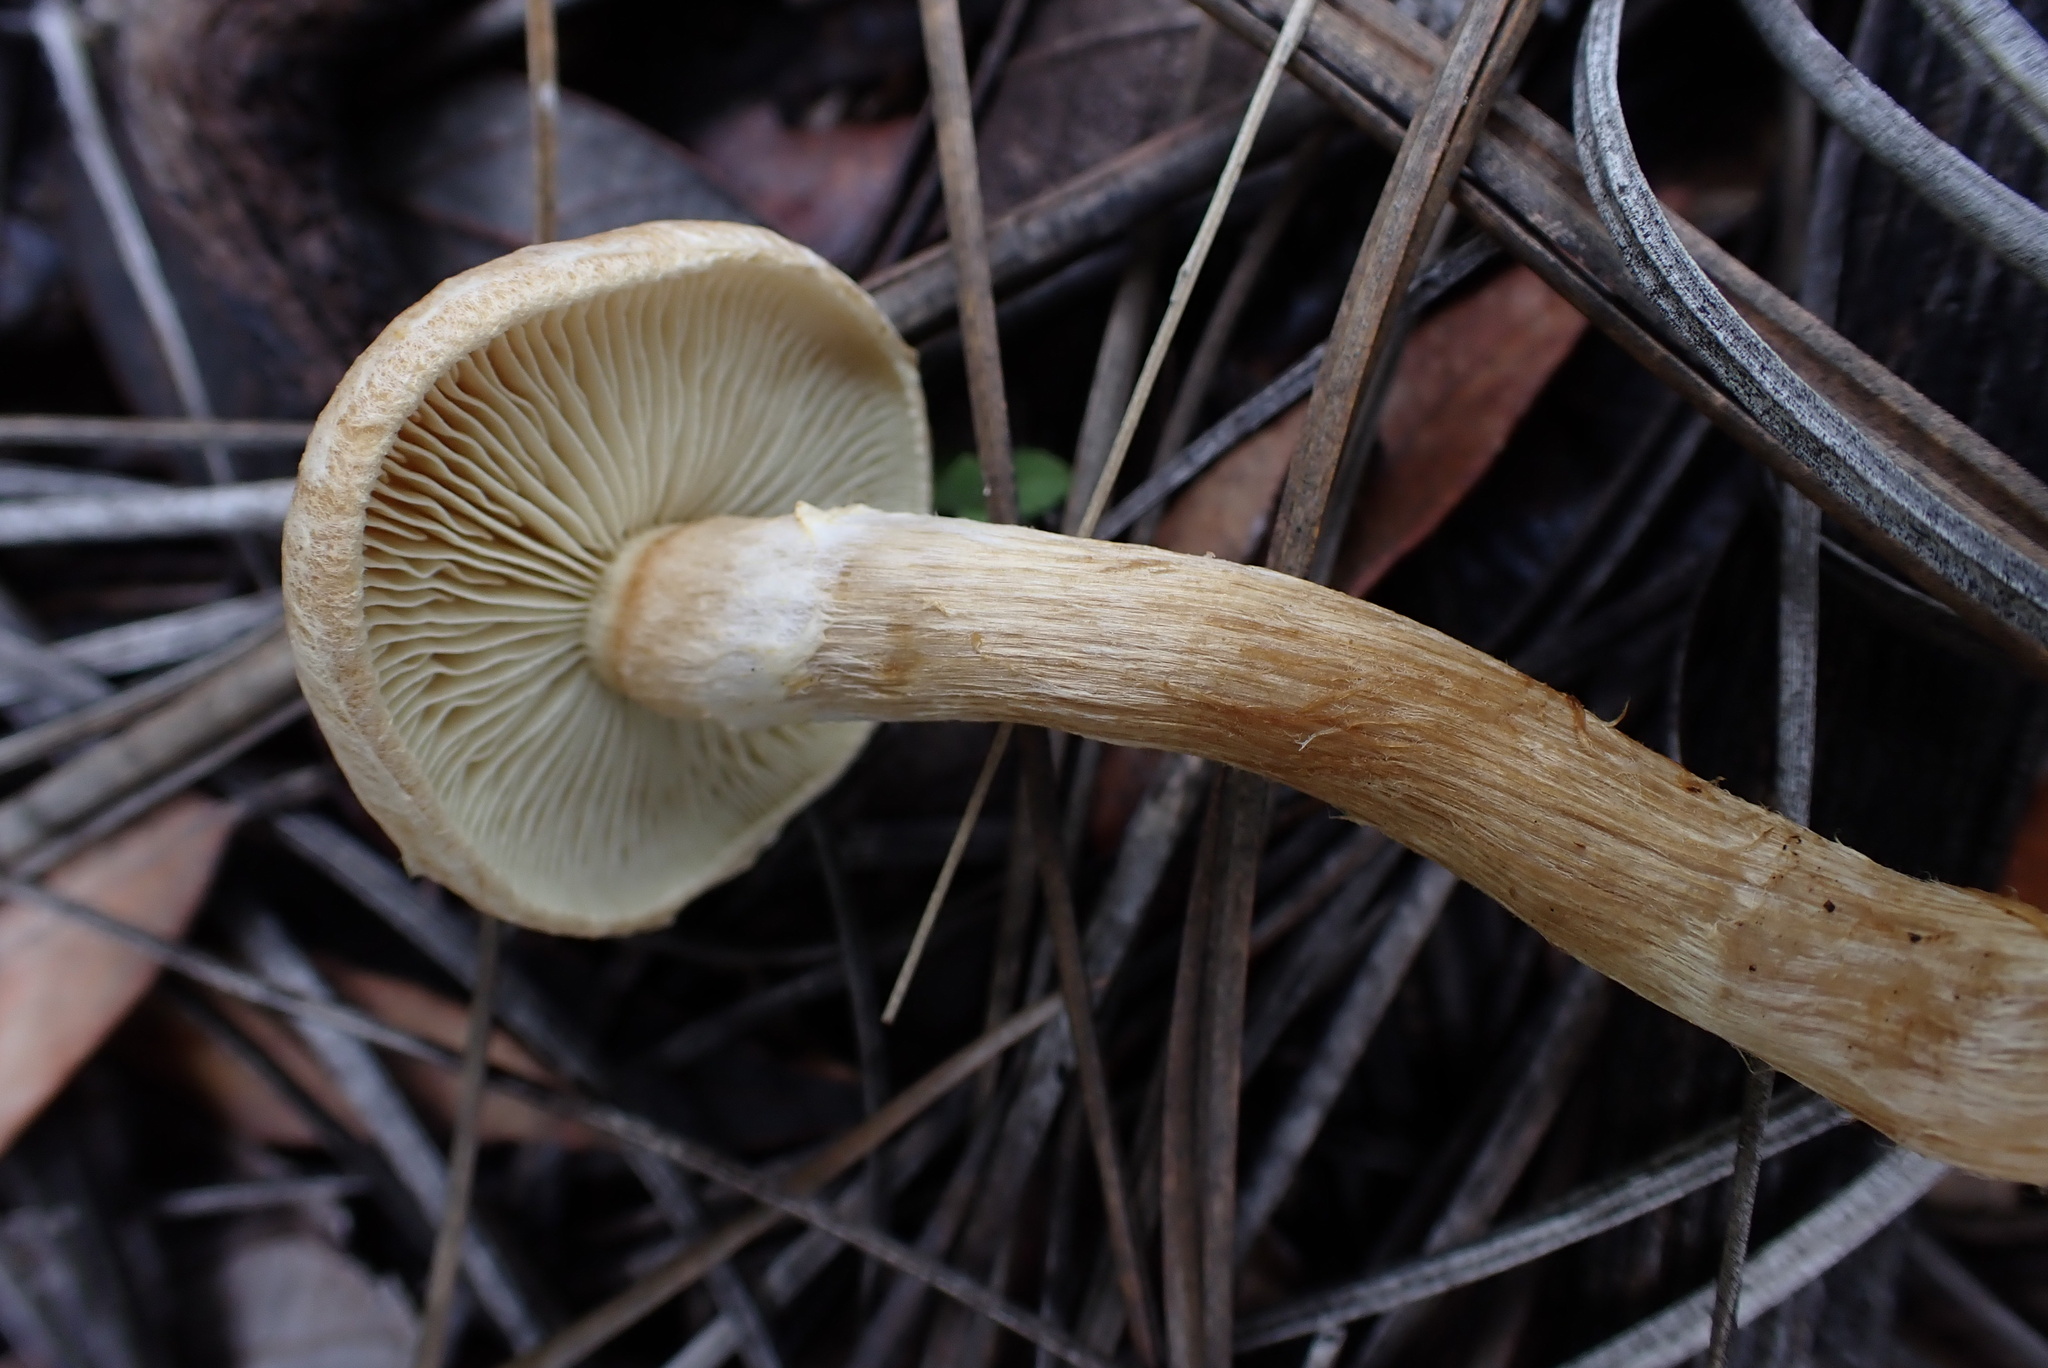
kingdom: Fungi
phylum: Basidiomycota
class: Agaricomycetes
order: Agaricales
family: Inocybaceae
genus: Mallocybe
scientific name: Mallocybe
